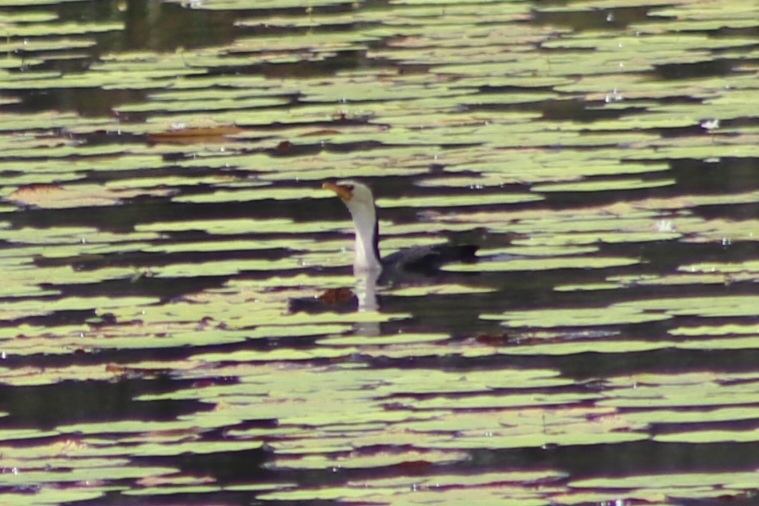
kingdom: Animalia
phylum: Chordata
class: Aves
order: Suliformes
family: Phalacrocoracidae
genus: Microcarbo
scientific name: Microcarbo melanoleucos
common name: Little pied cormorant
